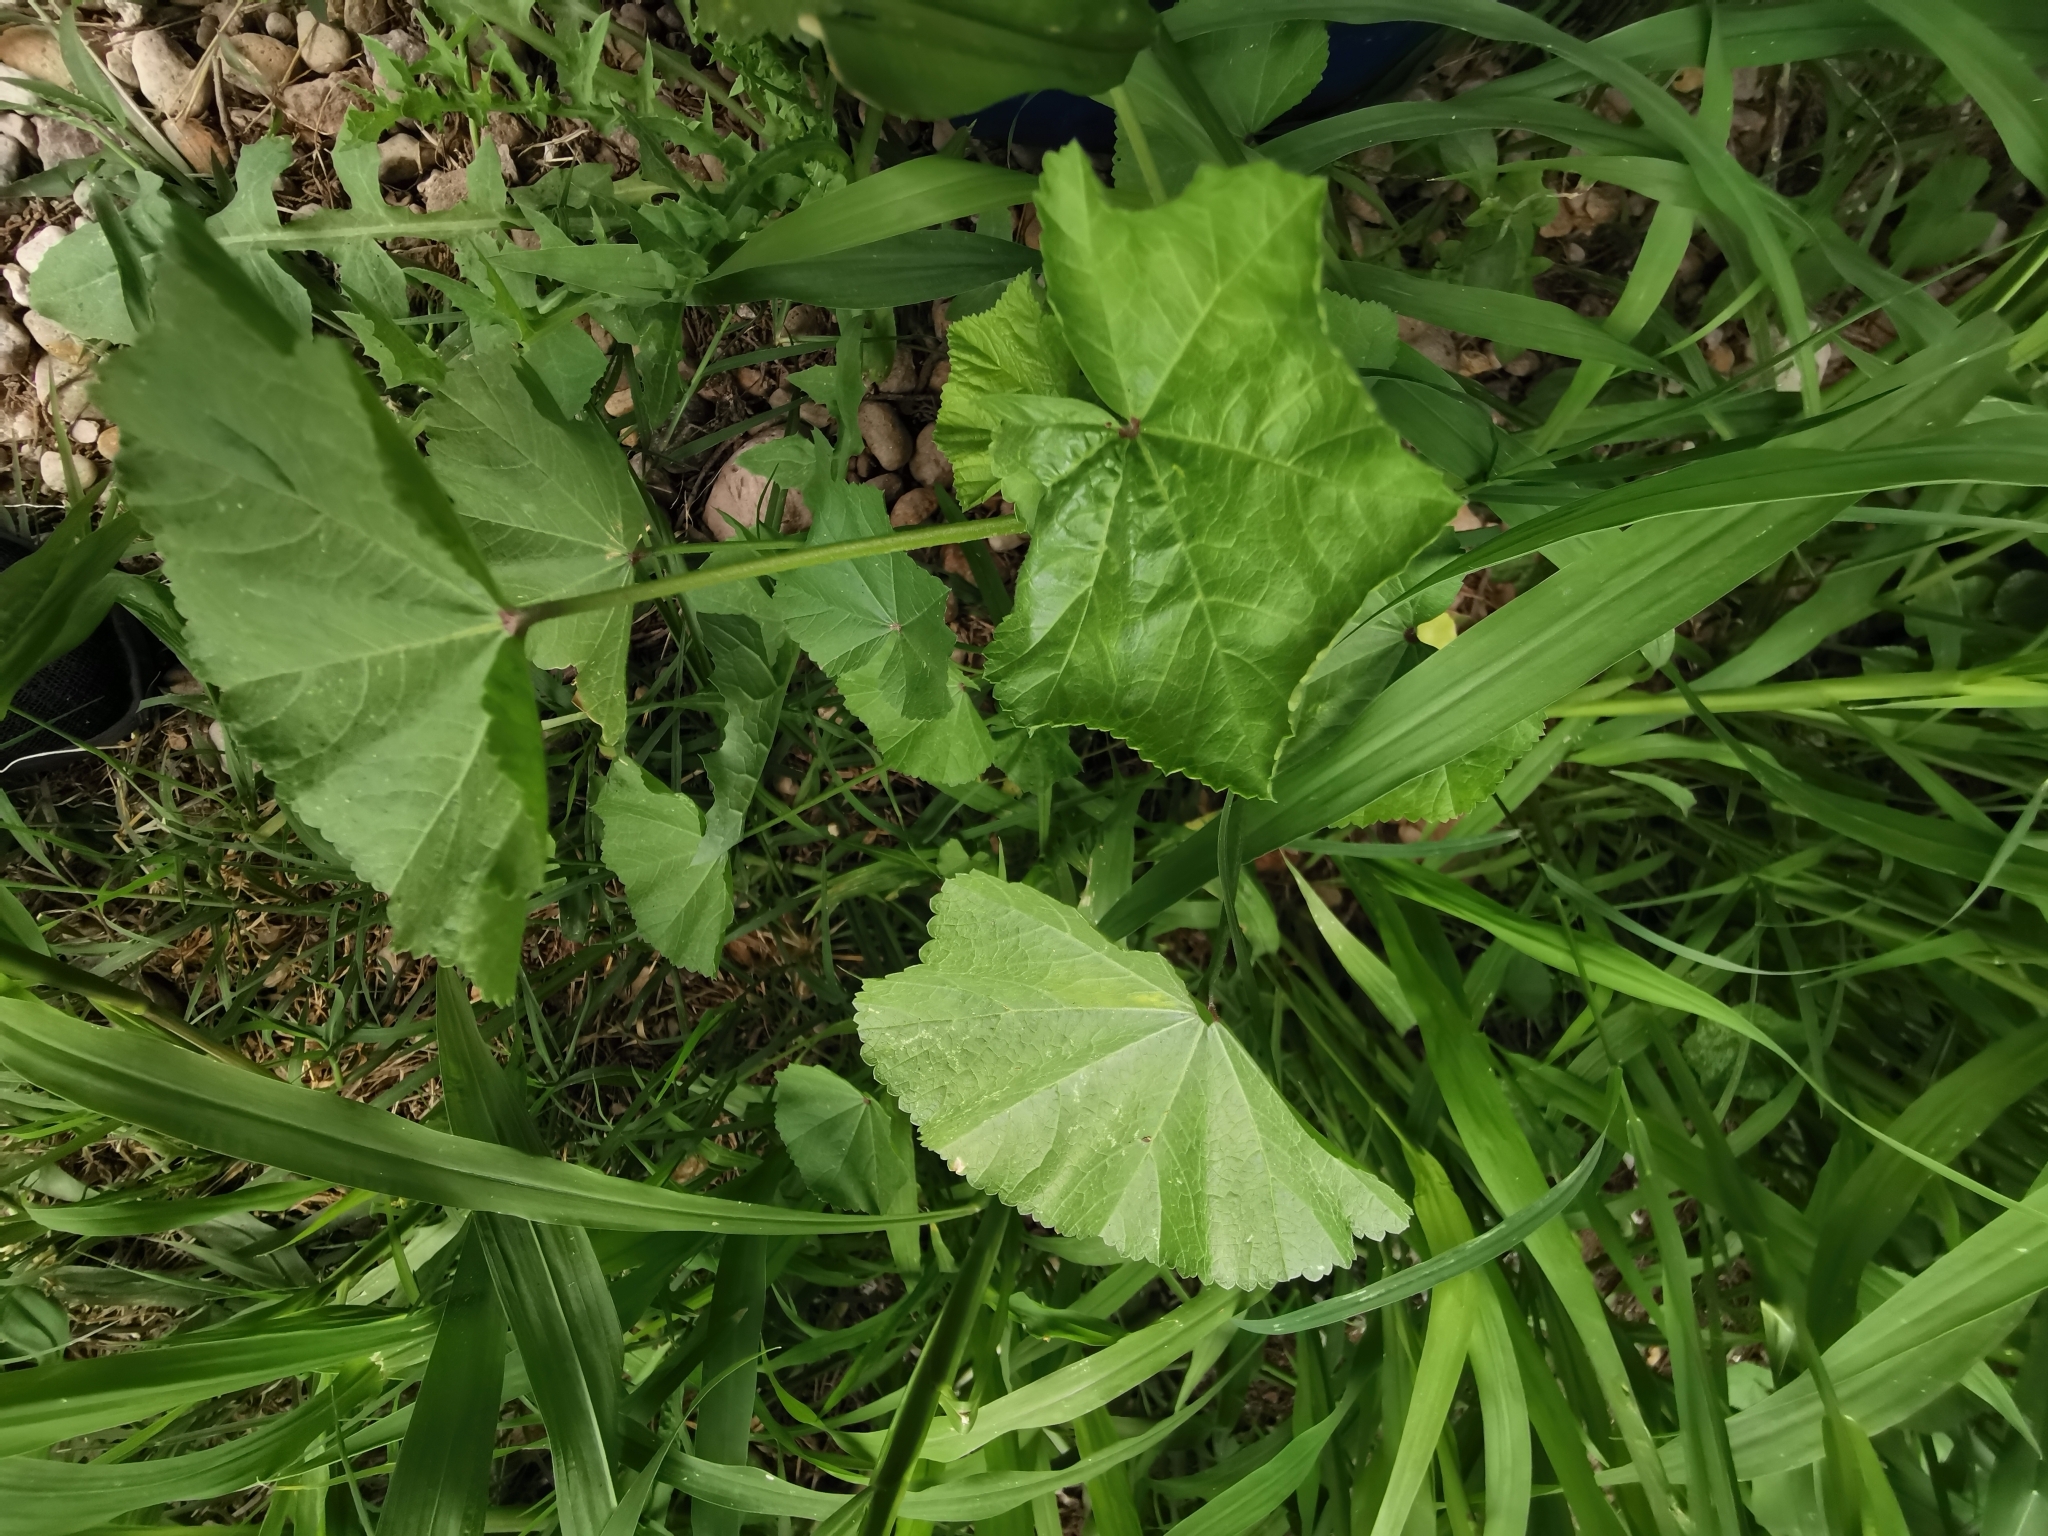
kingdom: Plantae
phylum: Tracheophyta
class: Magnoliopsida
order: Malvales
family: Malvaceae
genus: Malva
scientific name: Malva parviflora
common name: Least mallow
